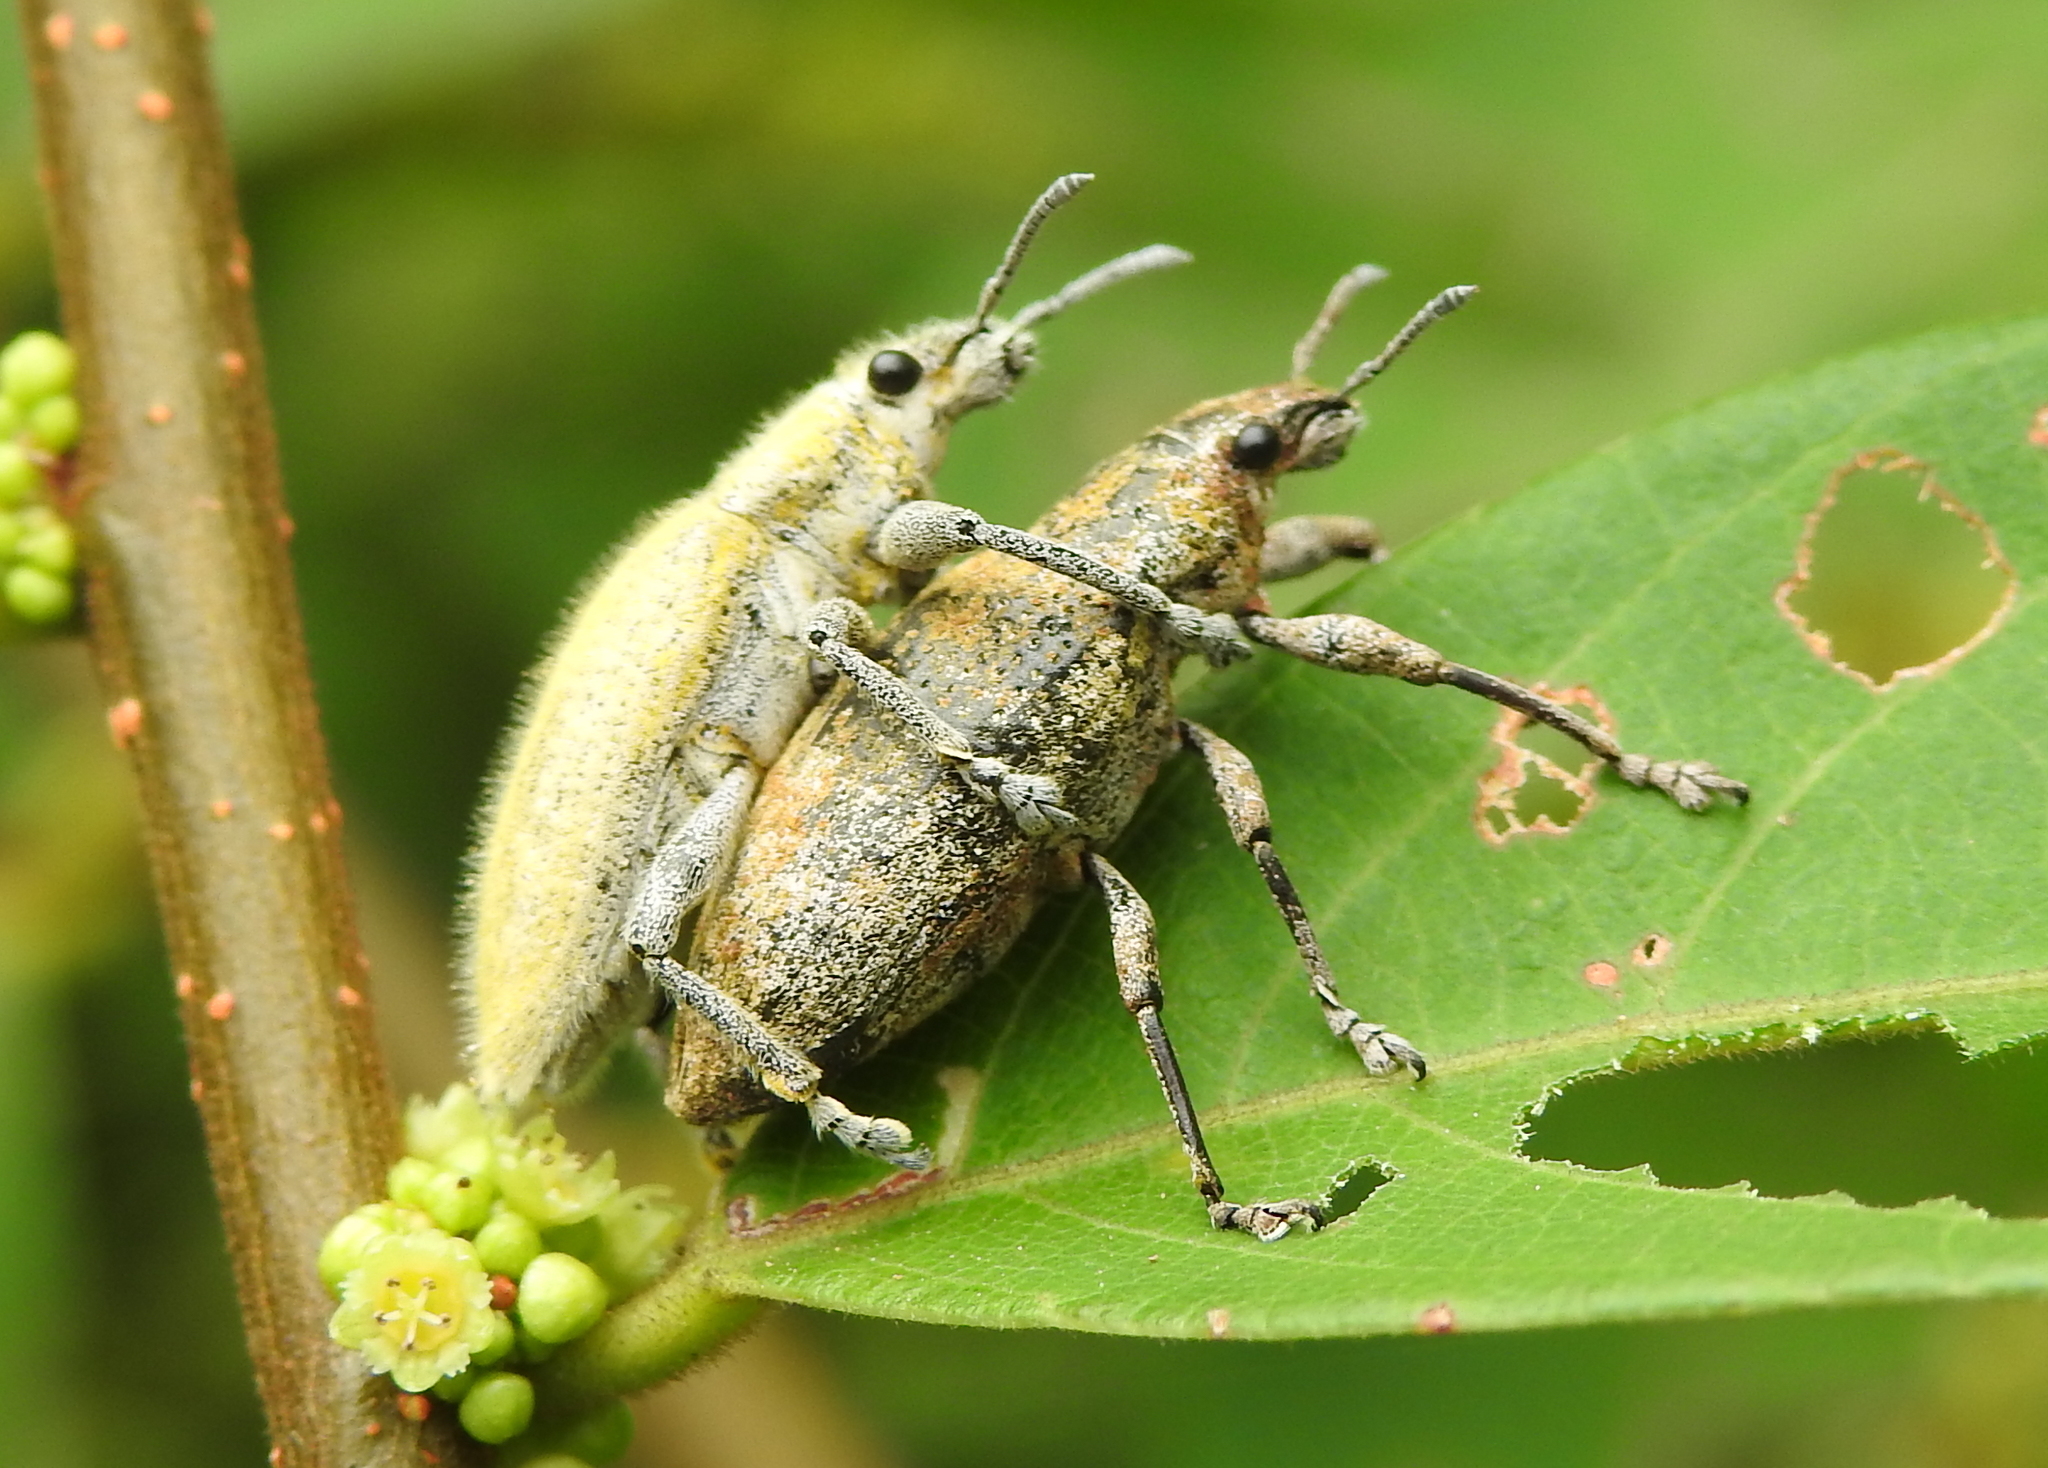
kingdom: Animalia
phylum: Arthropoda
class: Insecta
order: Coleoptera
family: Curculionidae
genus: Hypomeces
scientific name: Hypomeces pulviger
